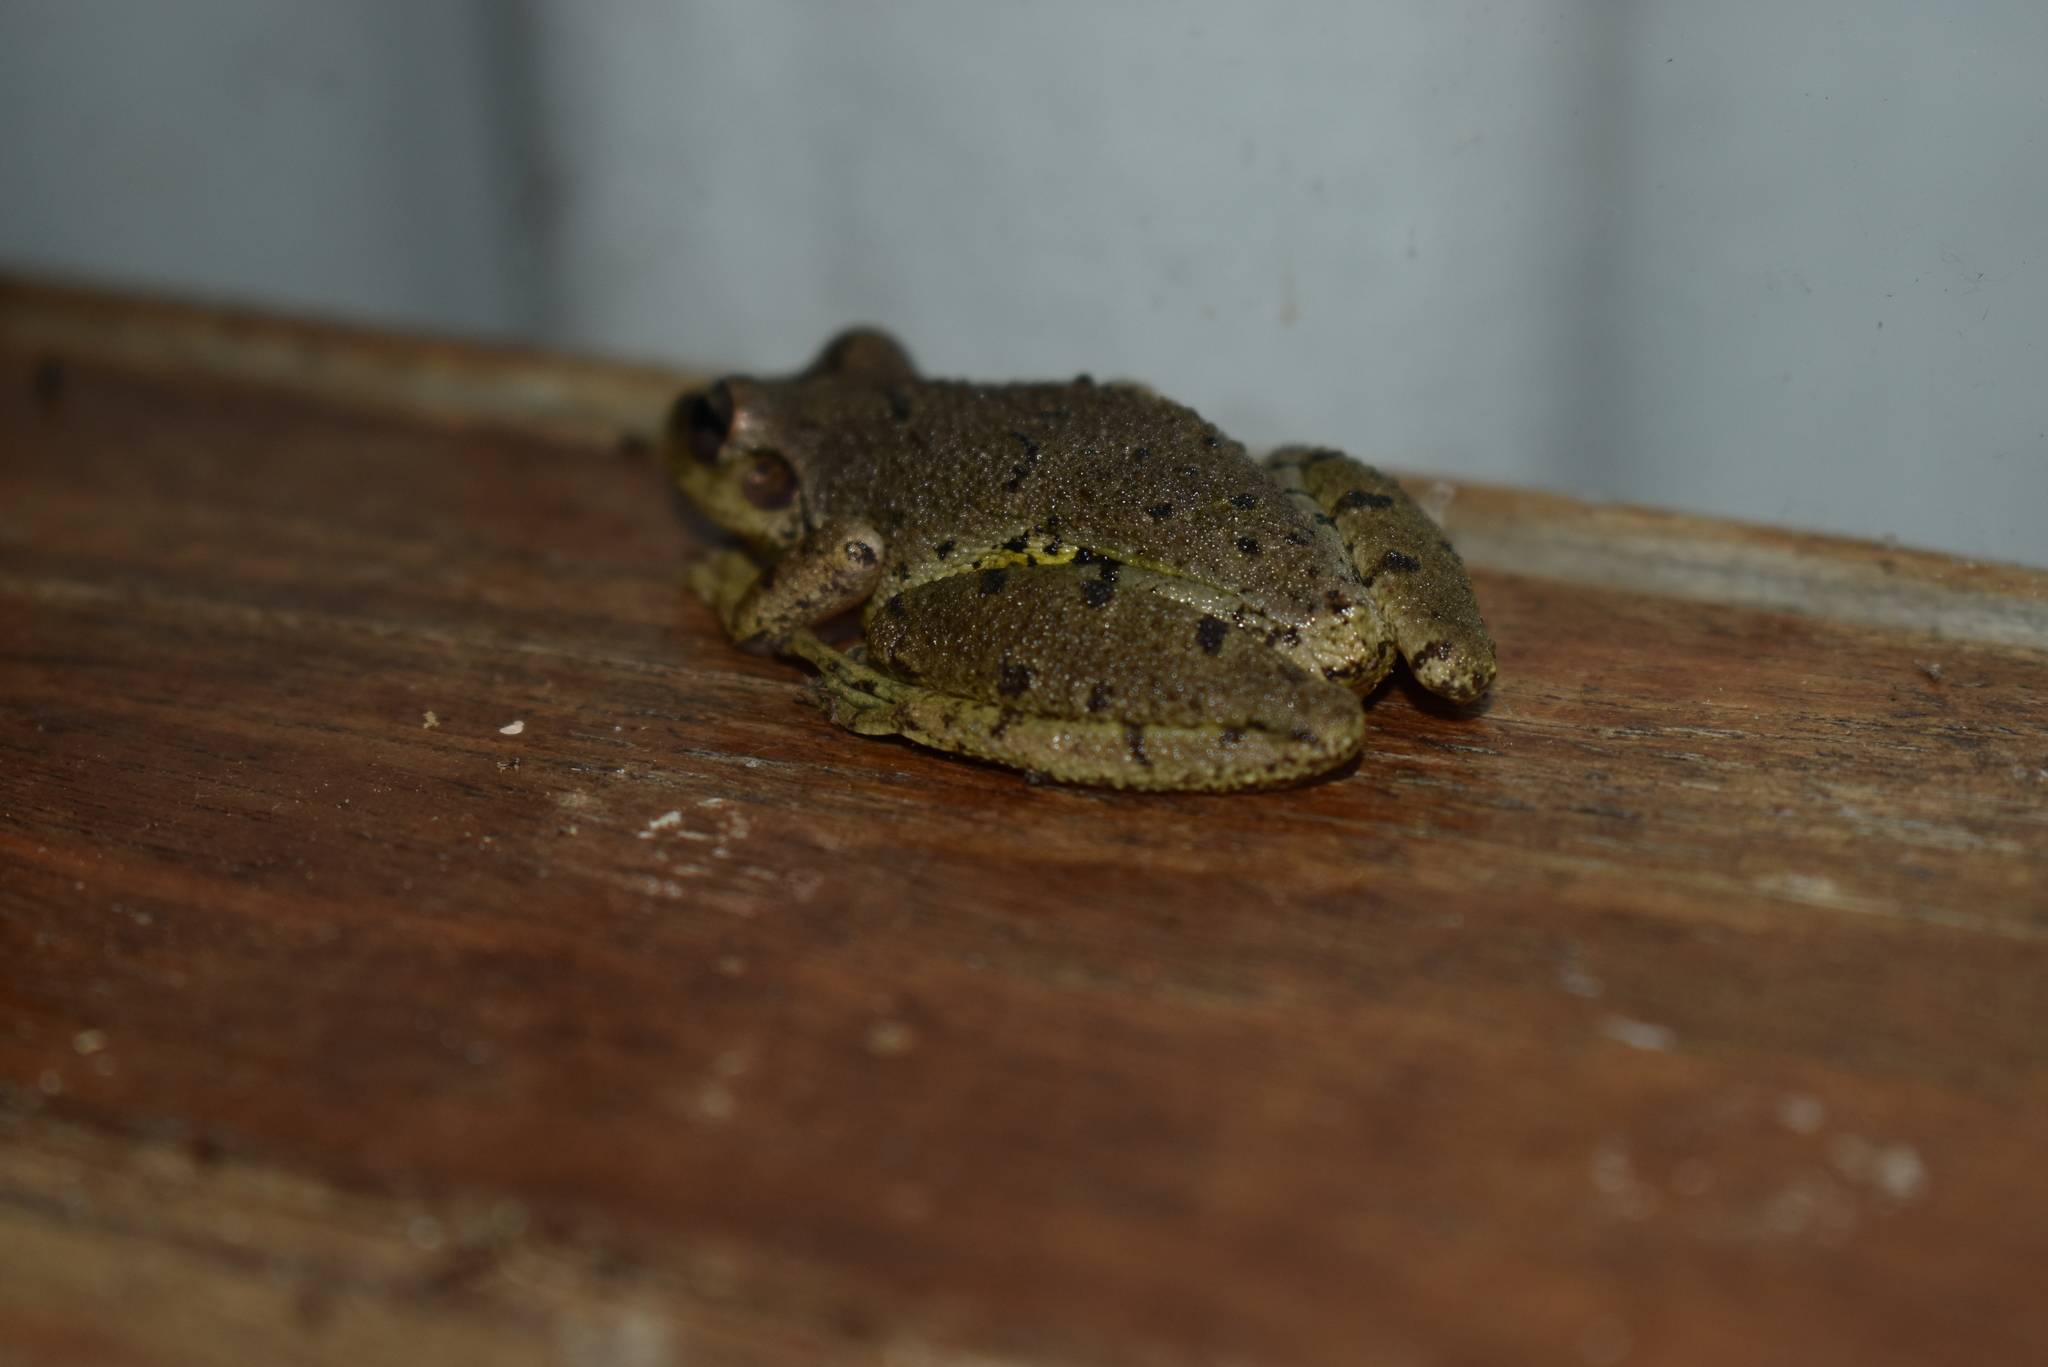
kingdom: Animalia
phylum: Chordata
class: Amphibia
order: Anura
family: Hylidae
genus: Scinax
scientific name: Scinax fuscovarius
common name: Fuscous-blotched treefrog
